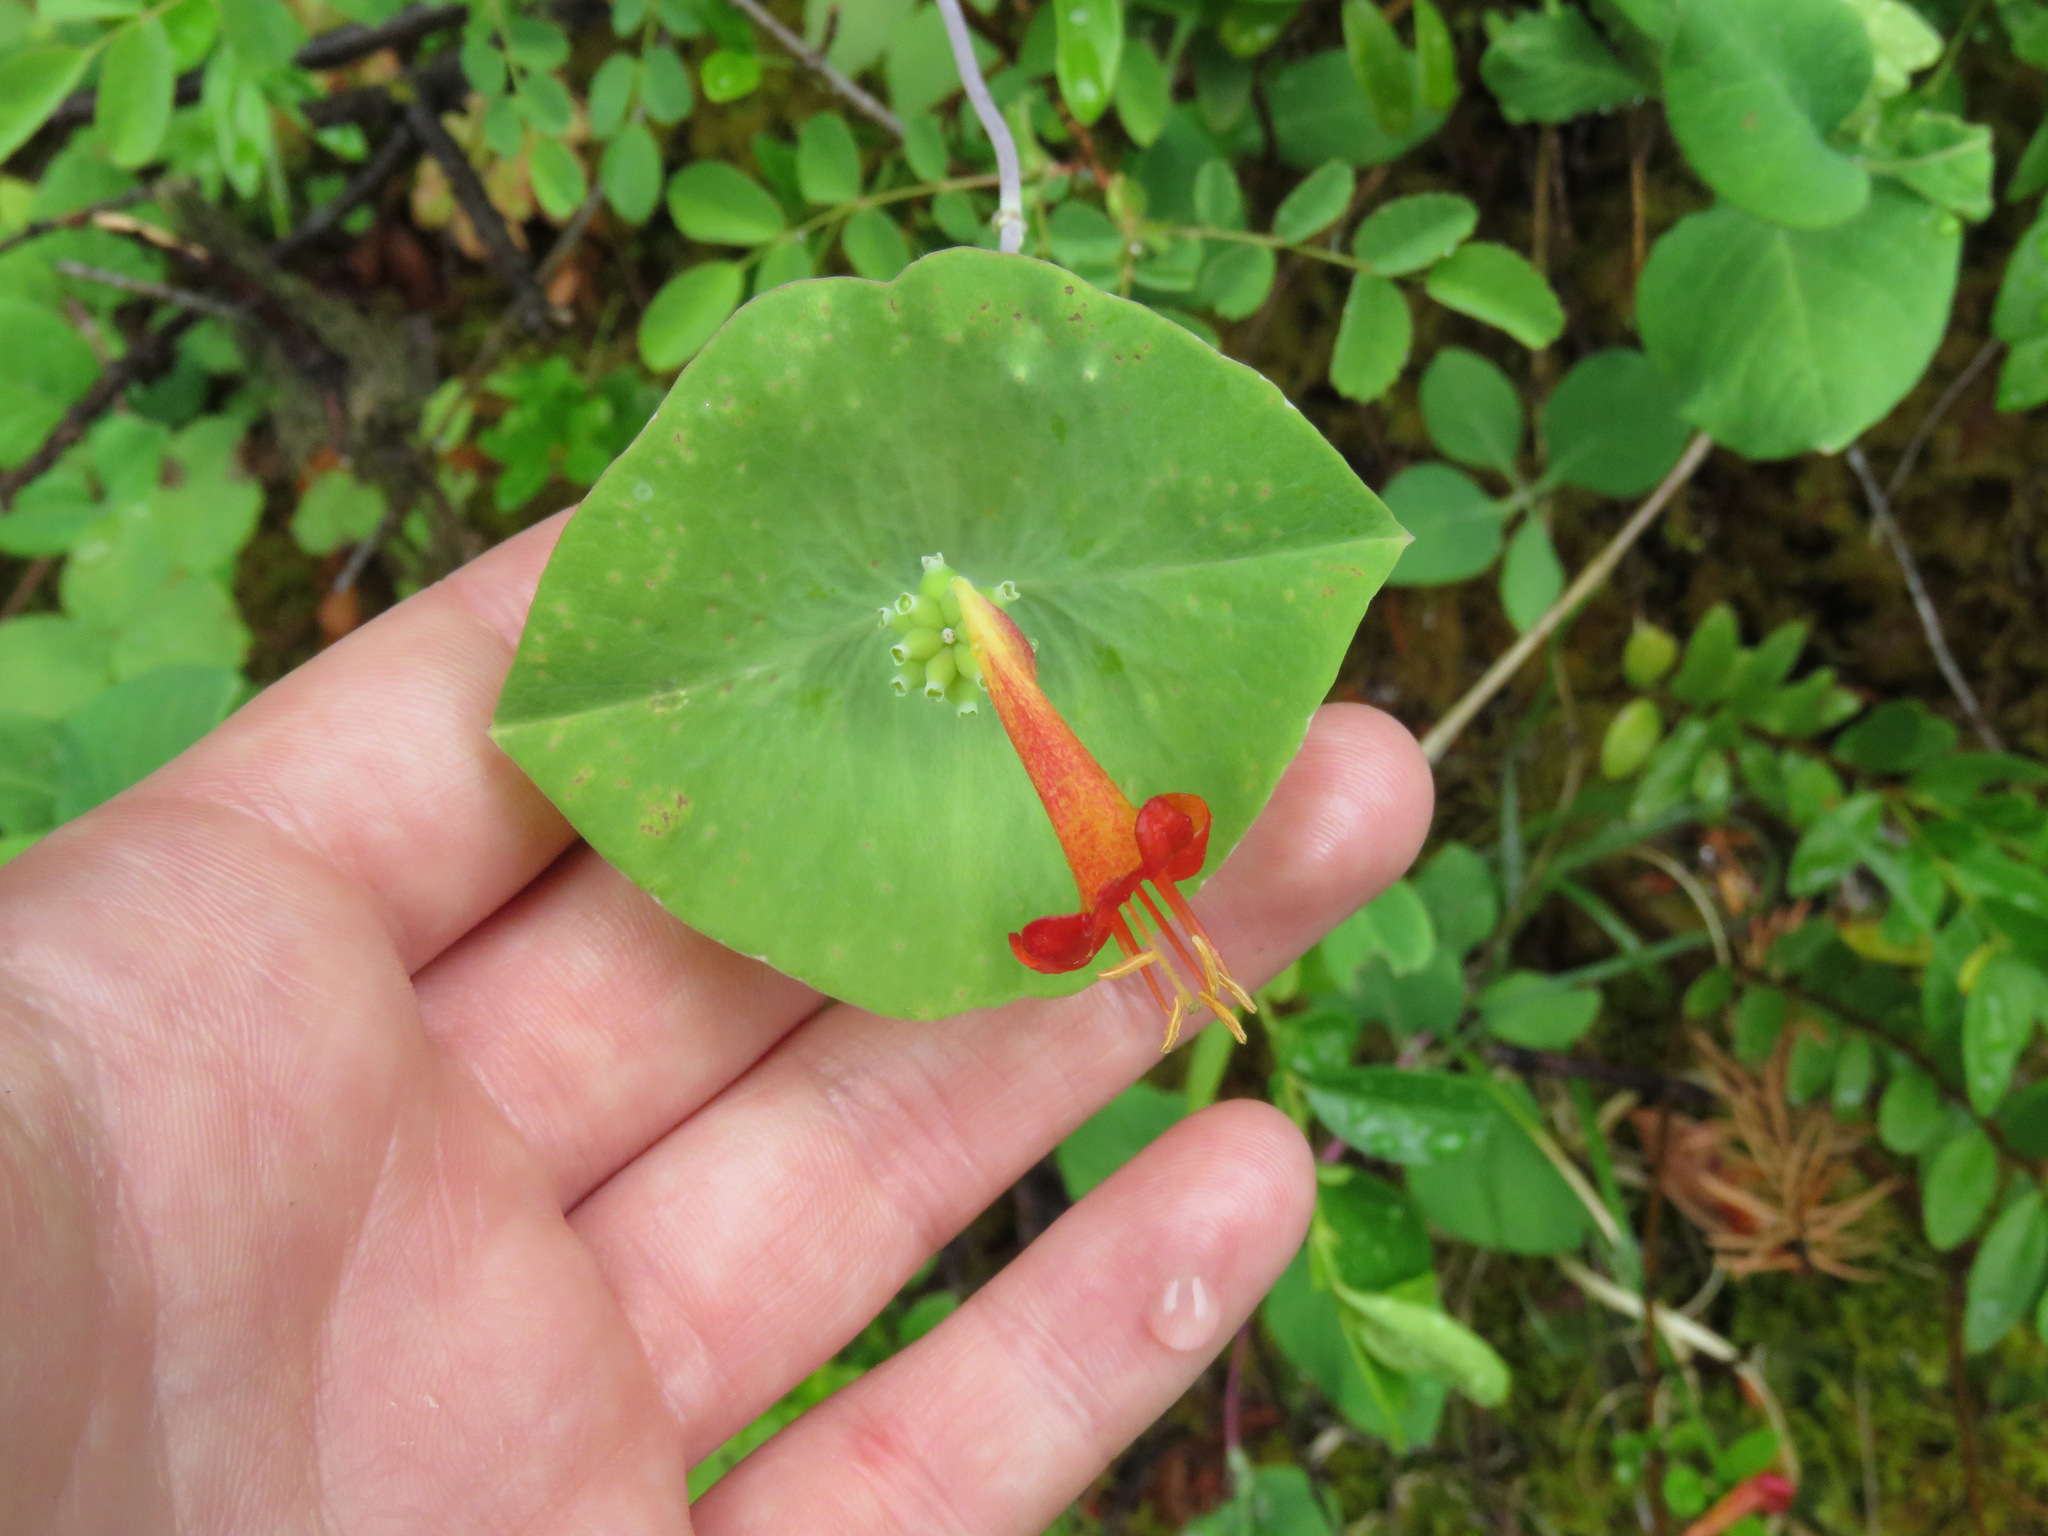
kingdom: Plantae
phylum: Tracheophyta
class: Magnoliopsida
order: Dipsacales
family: Caprifoliaceae
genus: Lonicera
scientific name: Lonicera ciliosa
